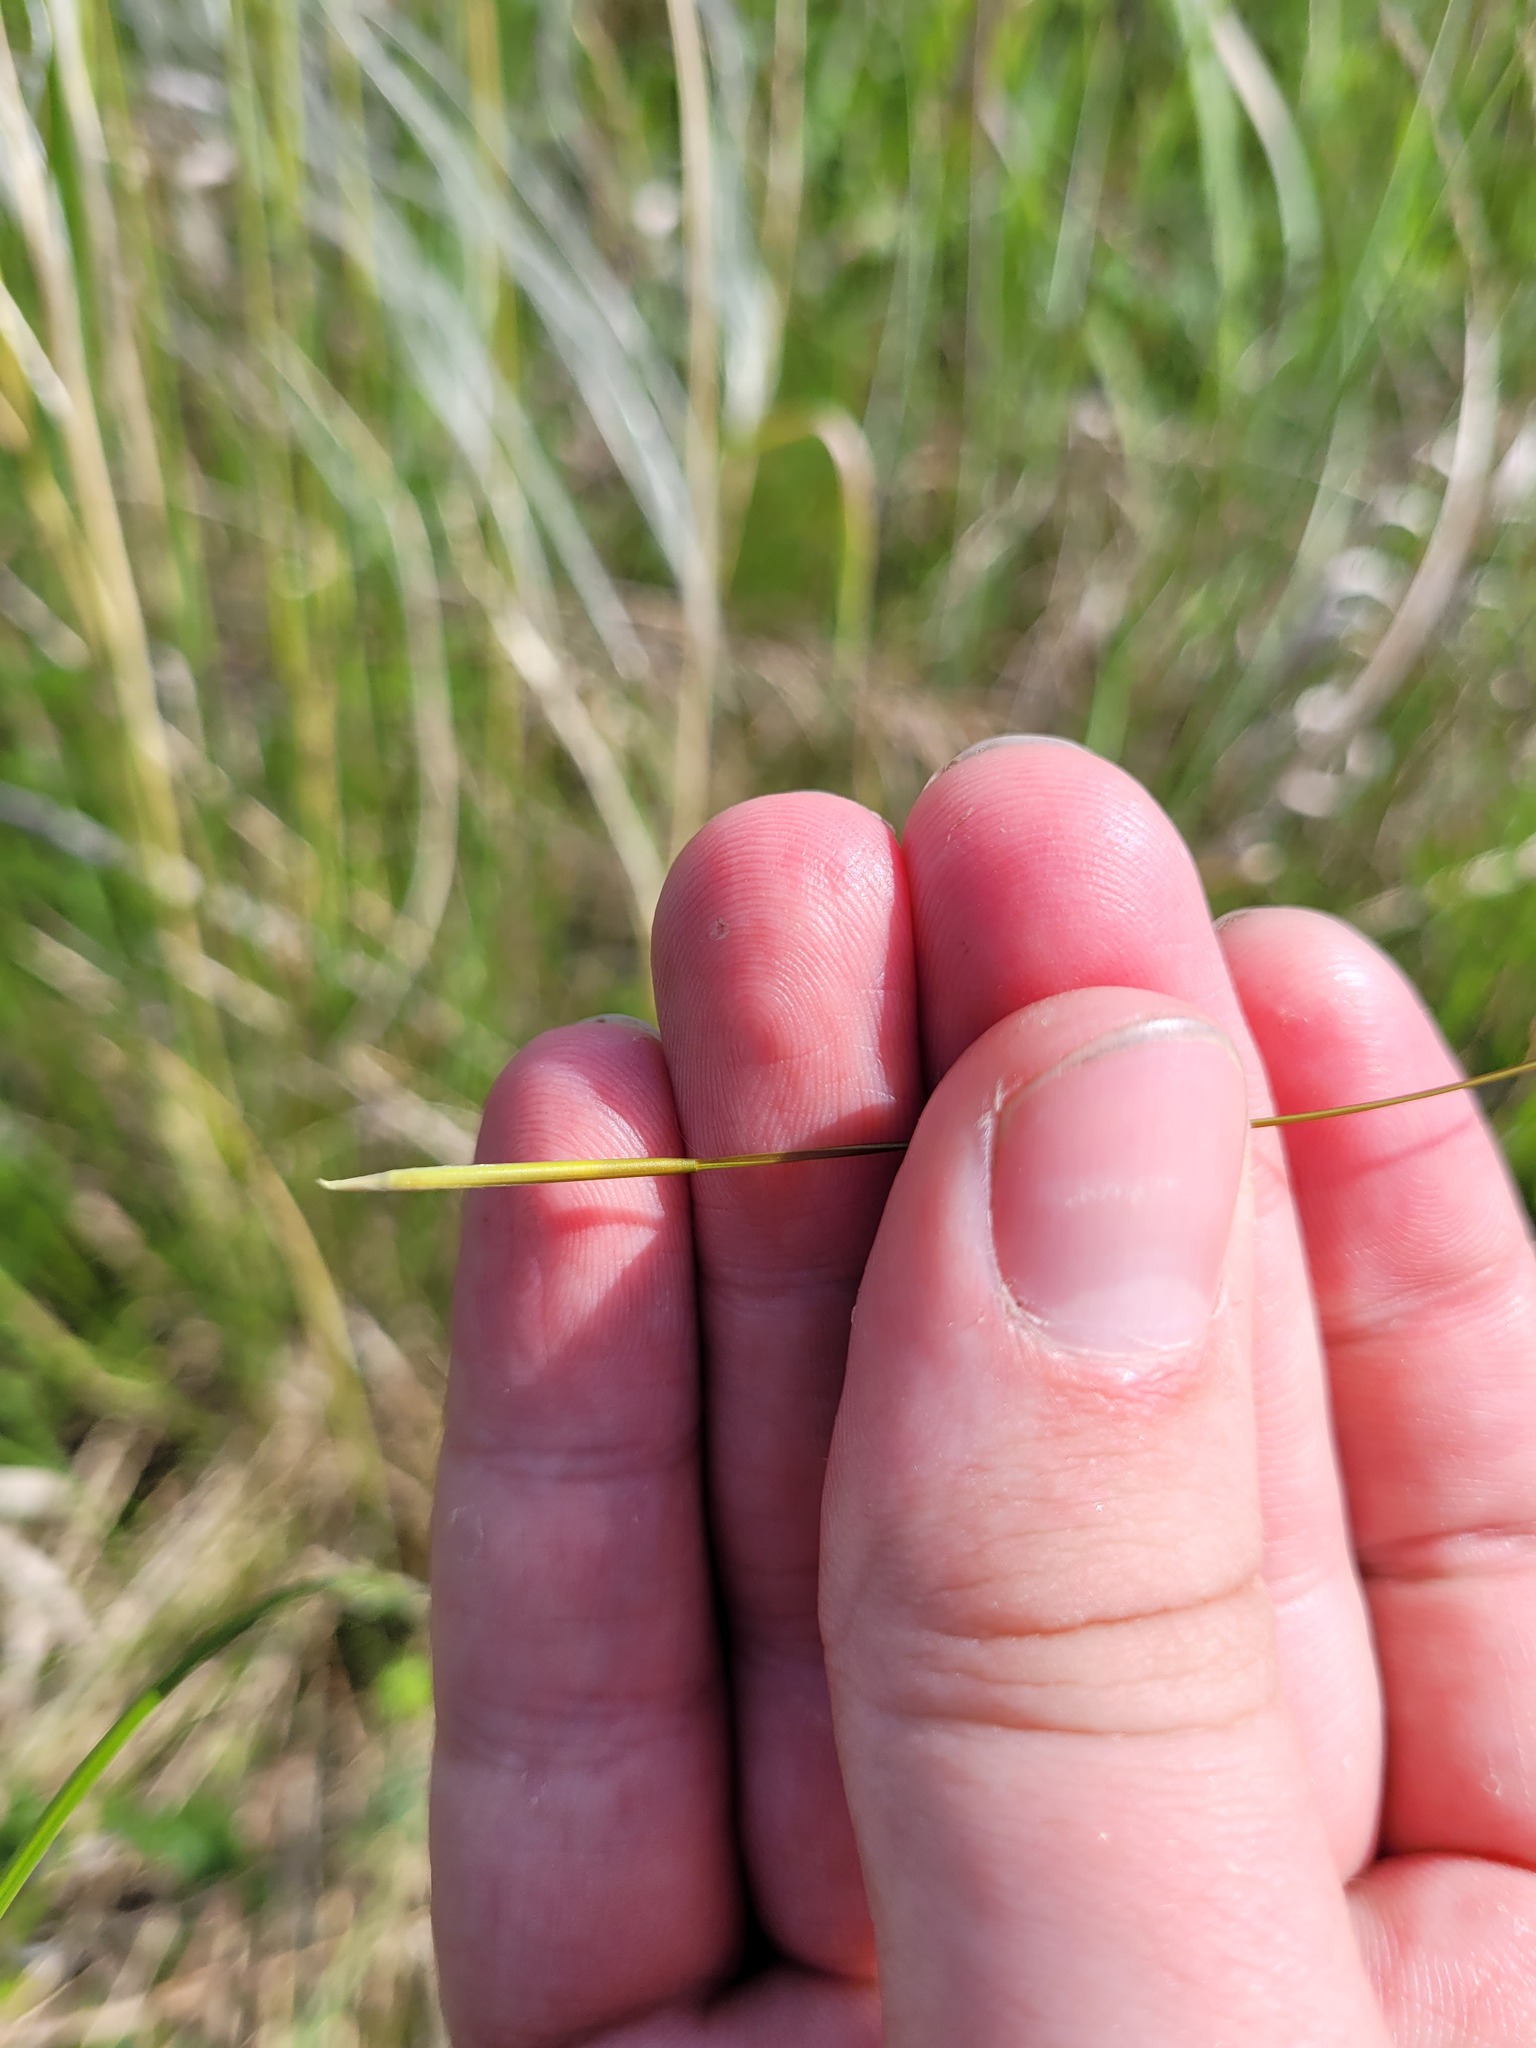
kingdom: Plantae
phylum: Tracheophyta
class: Liliopsida
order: Poales
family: Poaceae
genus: Stipa
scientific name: Stipa pennata
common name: European feather grass
